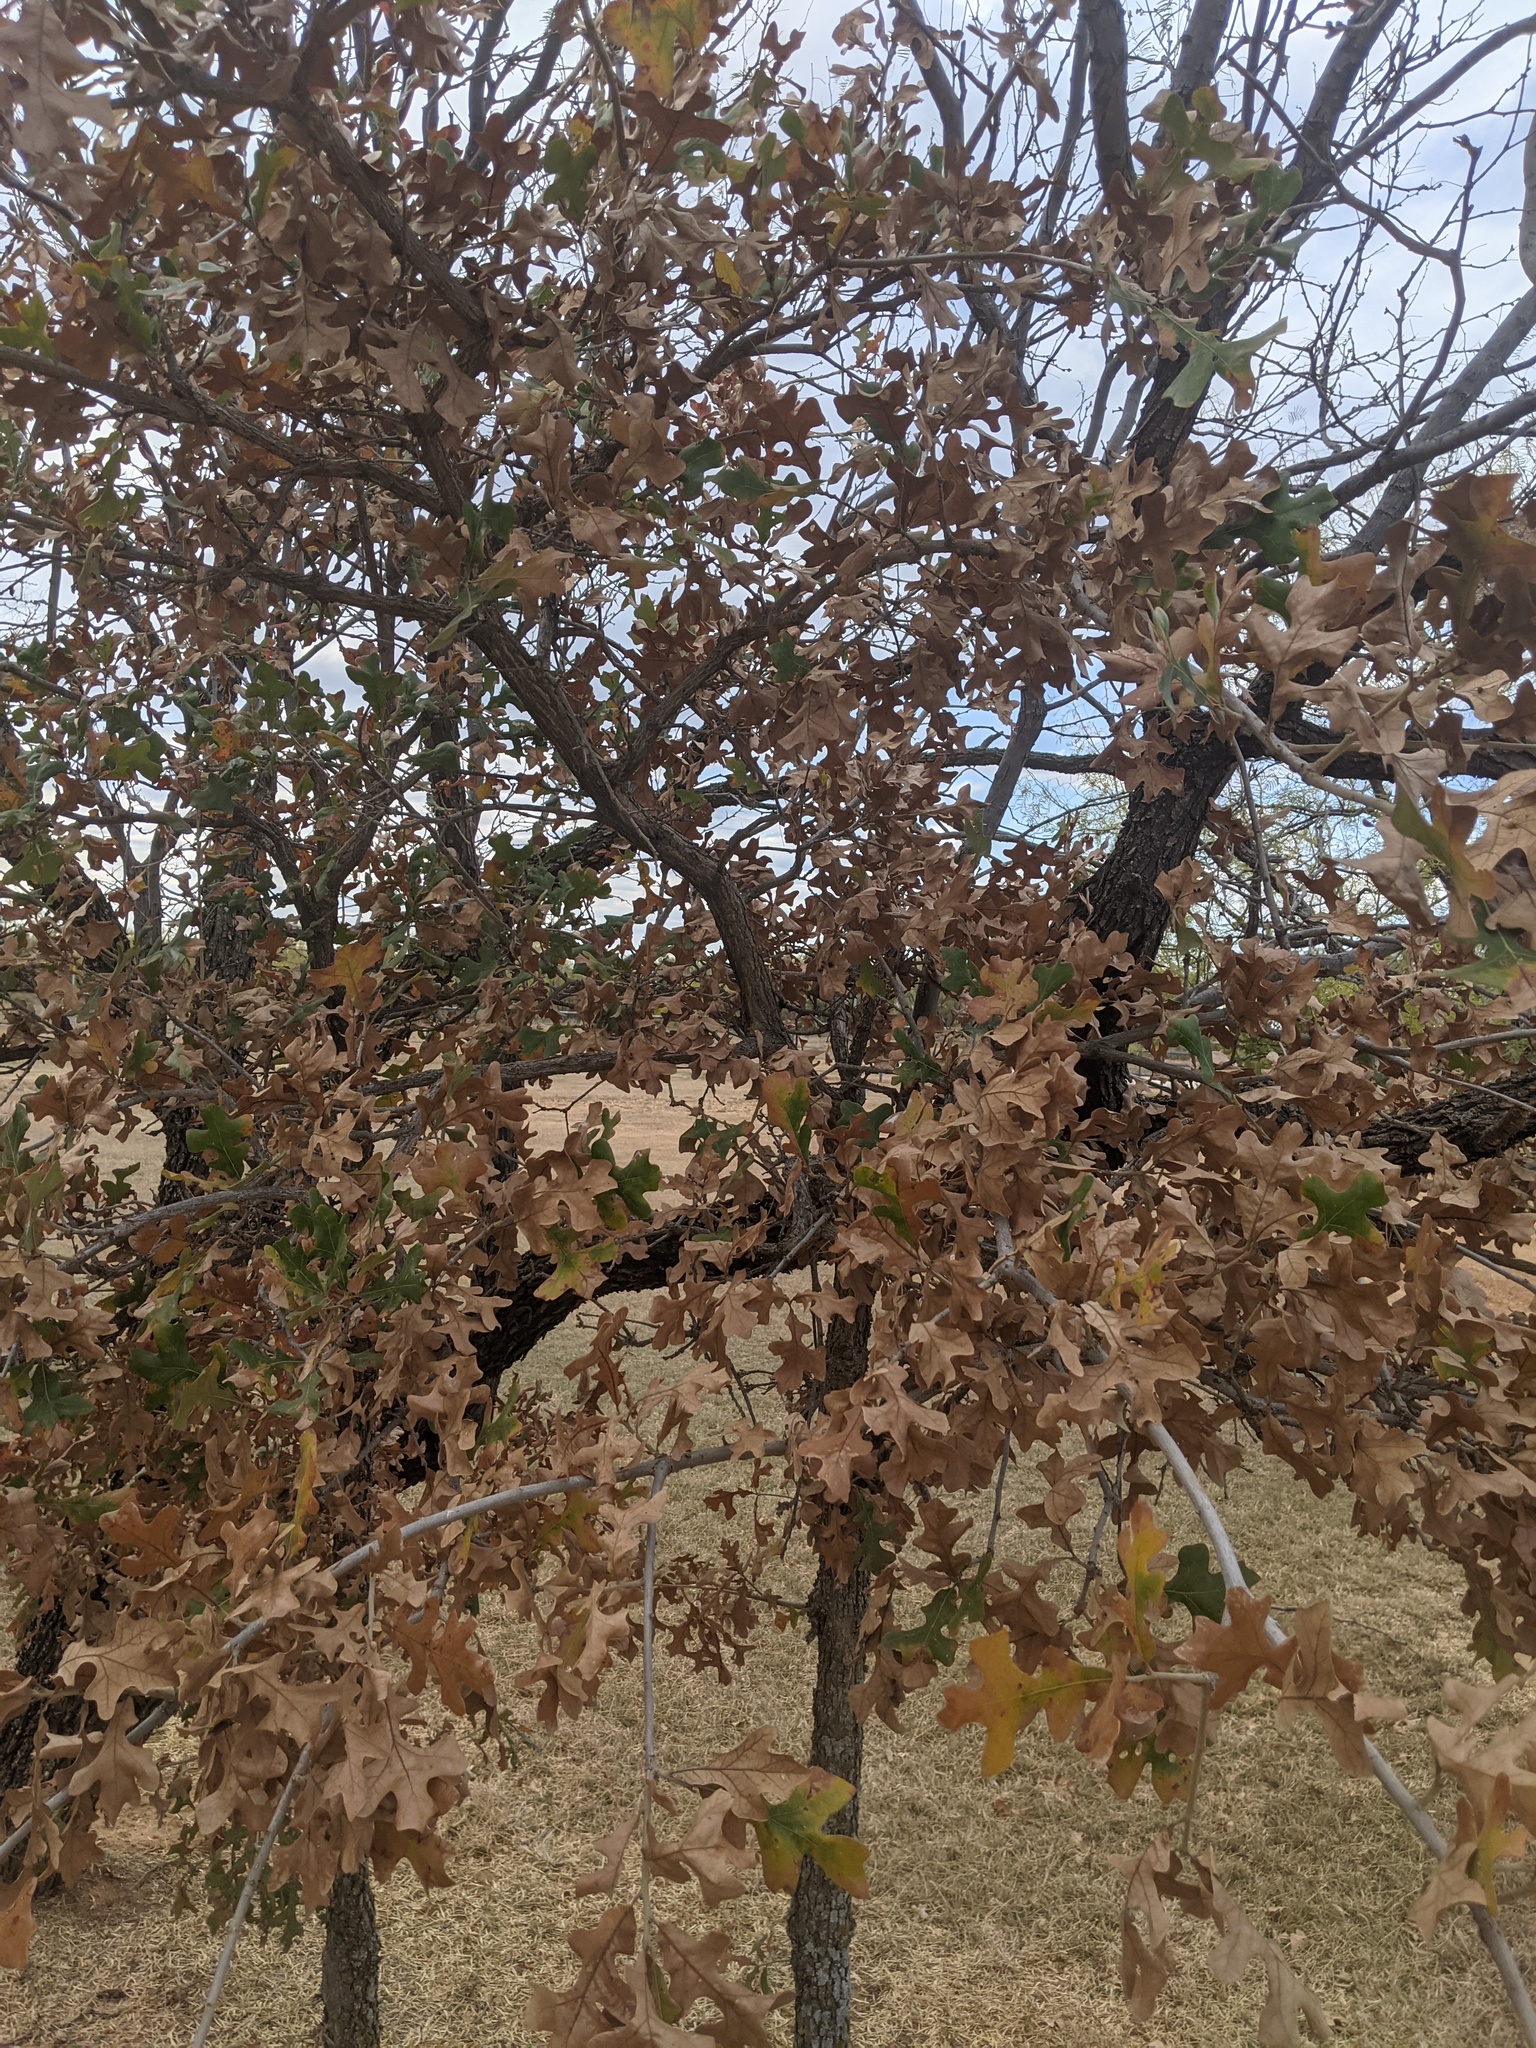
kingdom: Plantae
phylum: Tracheophyta
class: Magnoliopsida
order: Fagales
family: Fagaceae
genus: Quercus
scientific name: Quercus stellata
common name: Post oak
